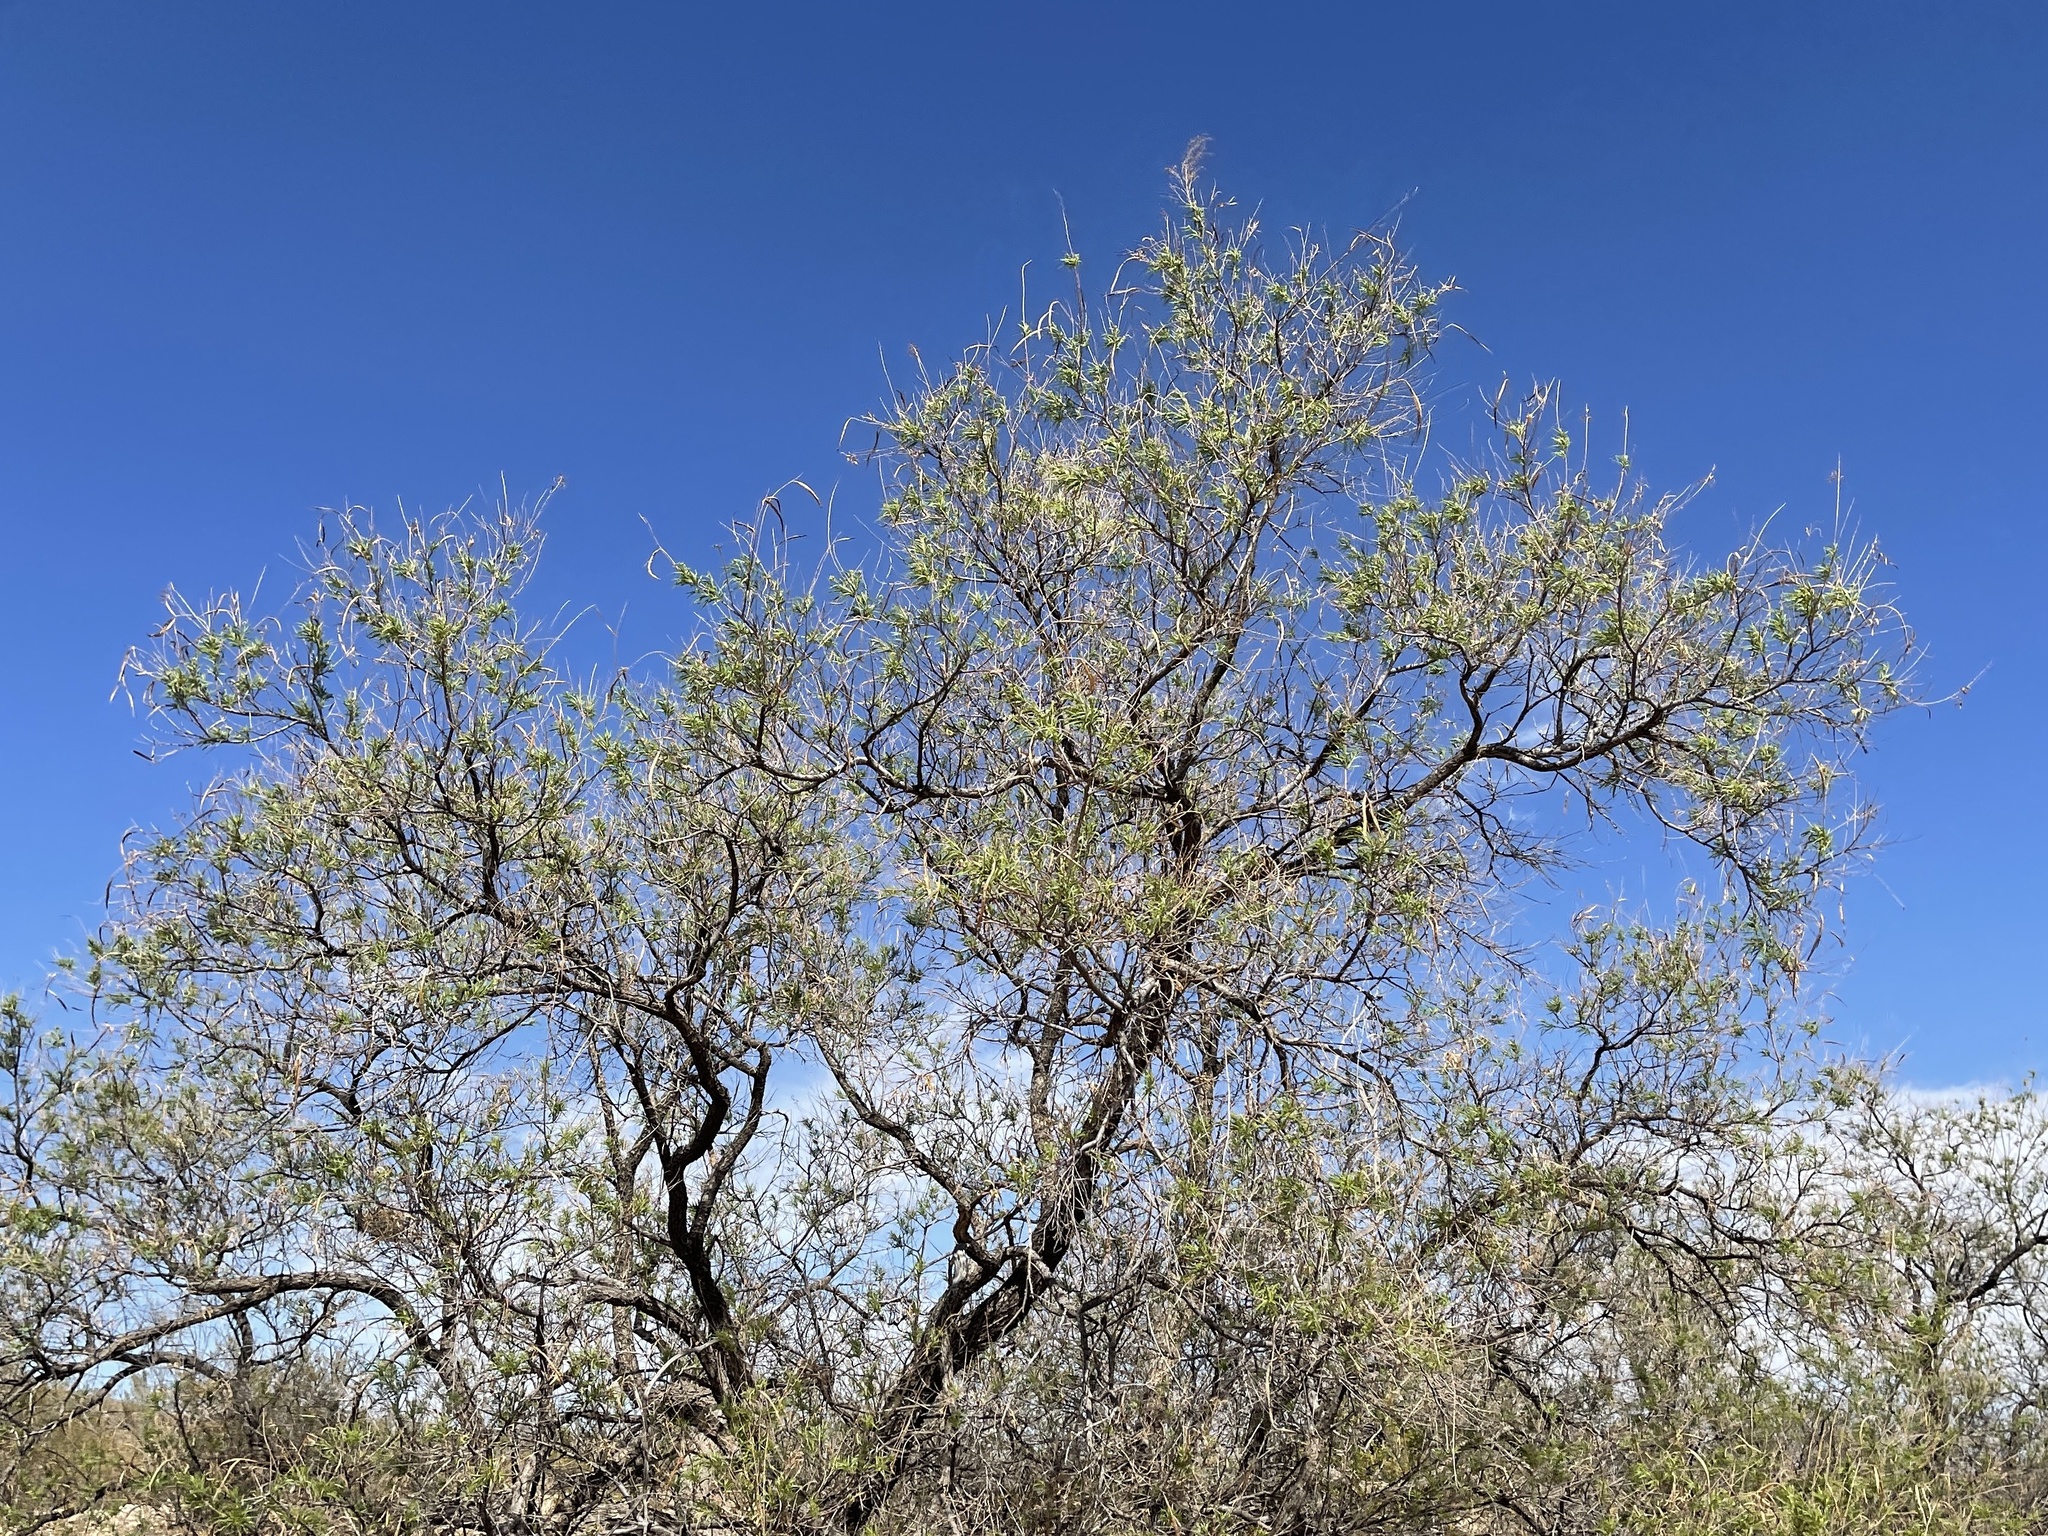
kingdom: Plantae
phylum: Tracheophyta
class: Magnoliopsida
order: Lamiales
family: Bignoniaceae
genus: Chilopsis
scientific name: Chilopsis linearis
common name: Desert-willow
